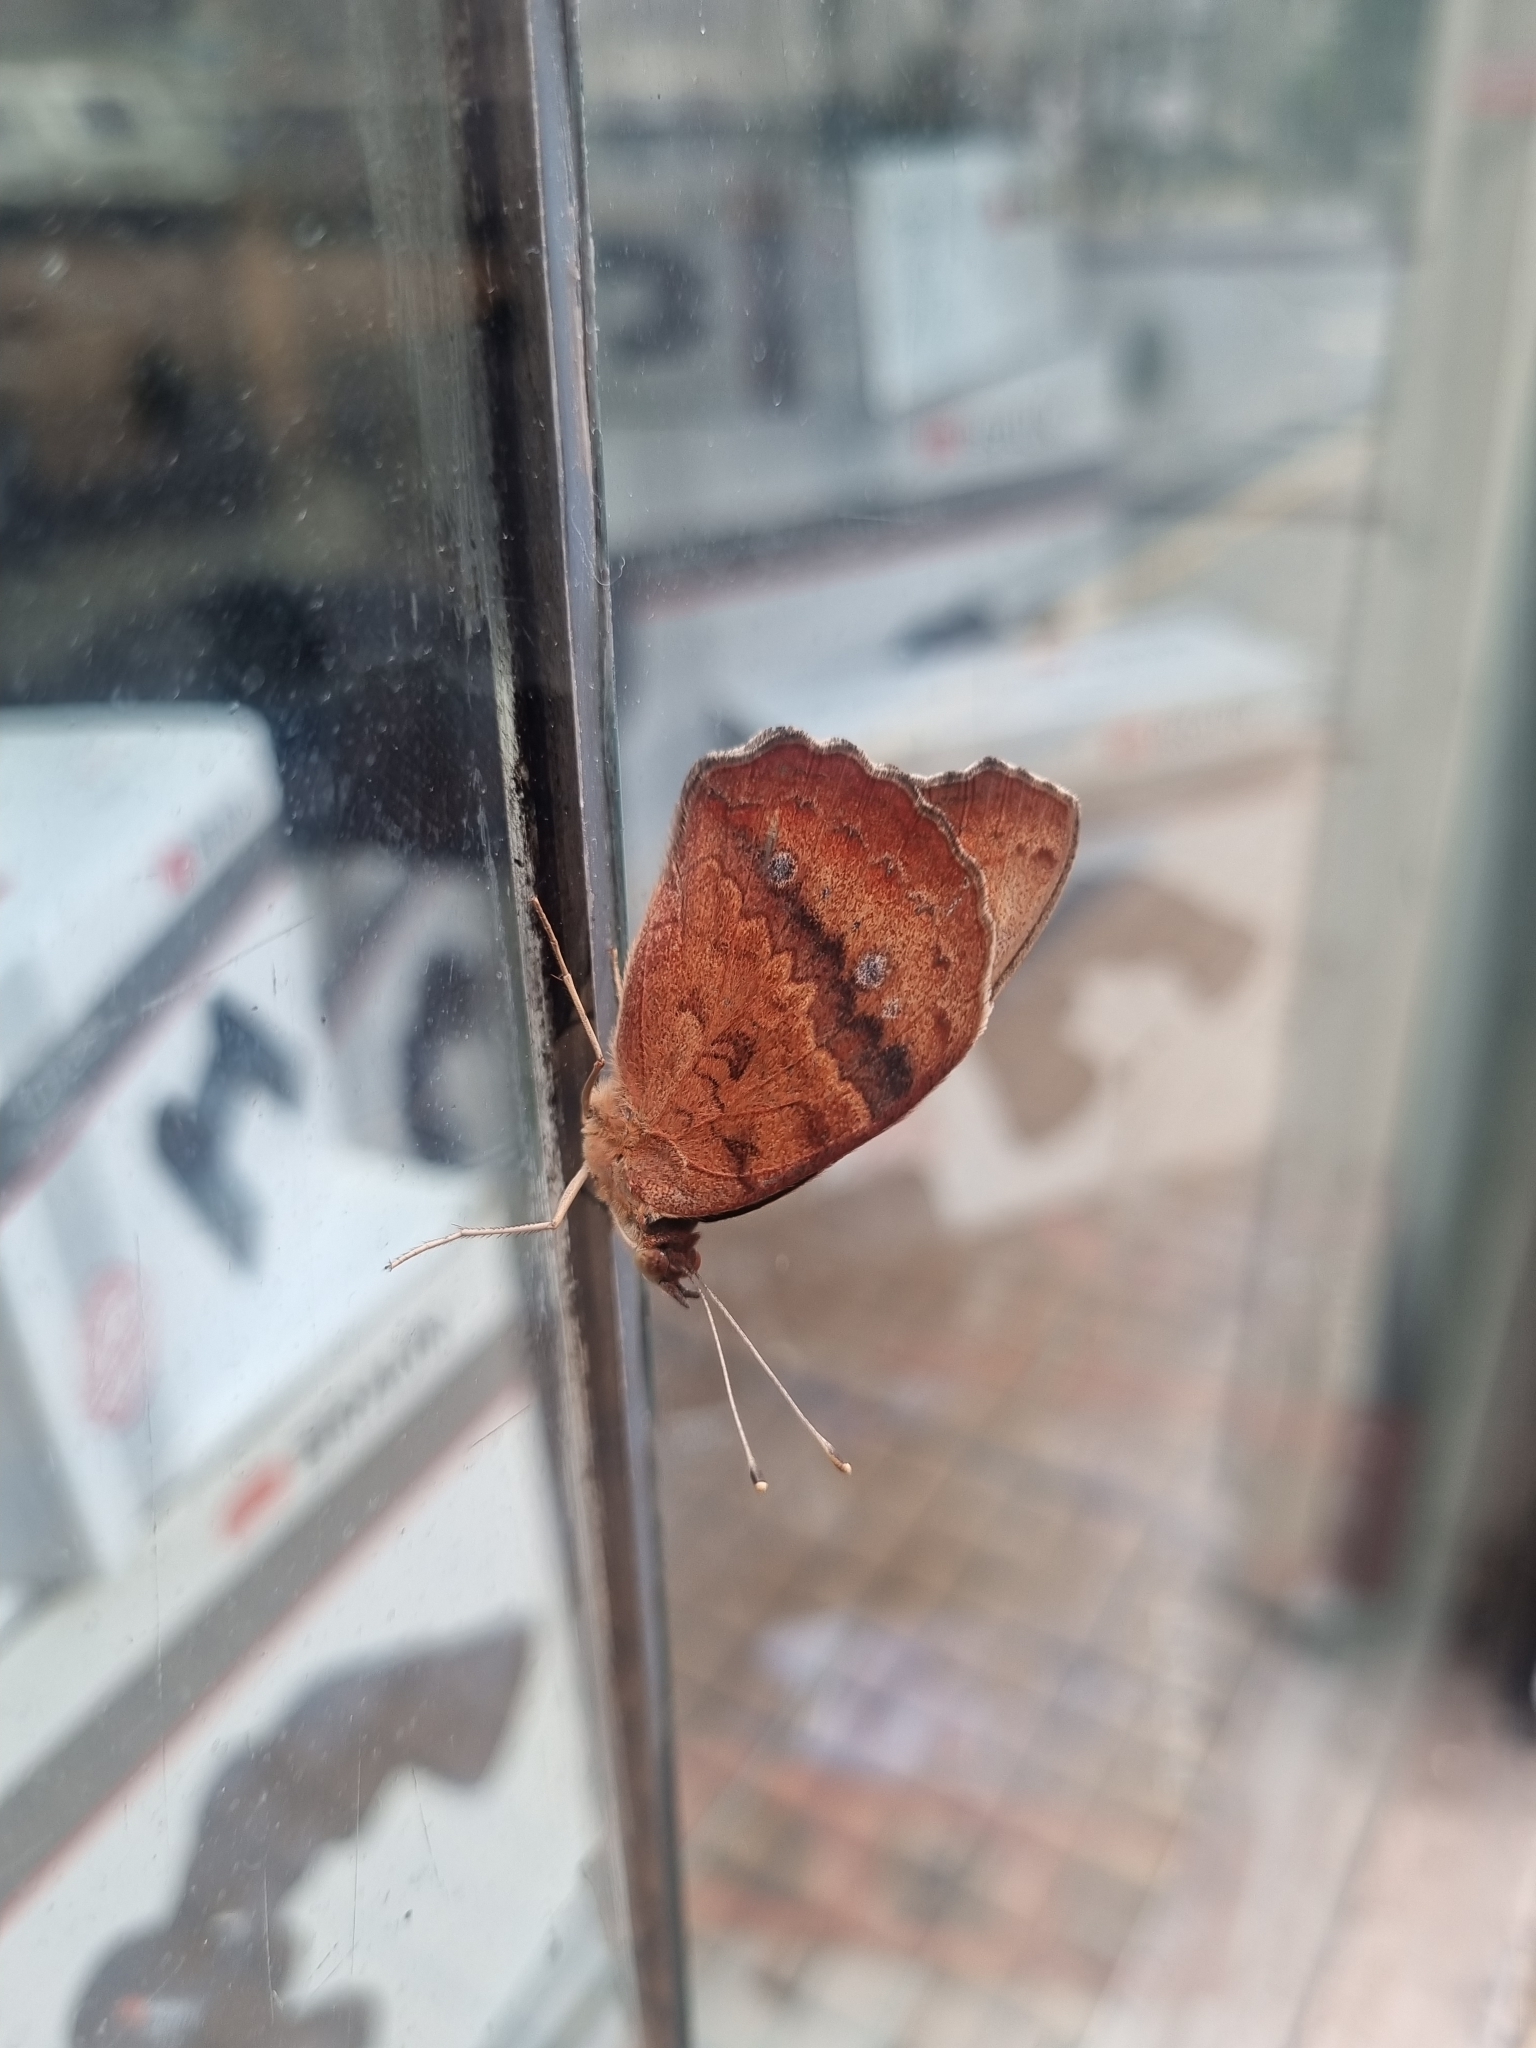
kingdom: Animalia
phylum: Arthropoda
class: Insecta
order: Lepidoptera
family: Nymphalidae
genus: Junonia
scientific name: Junonia lavinia
